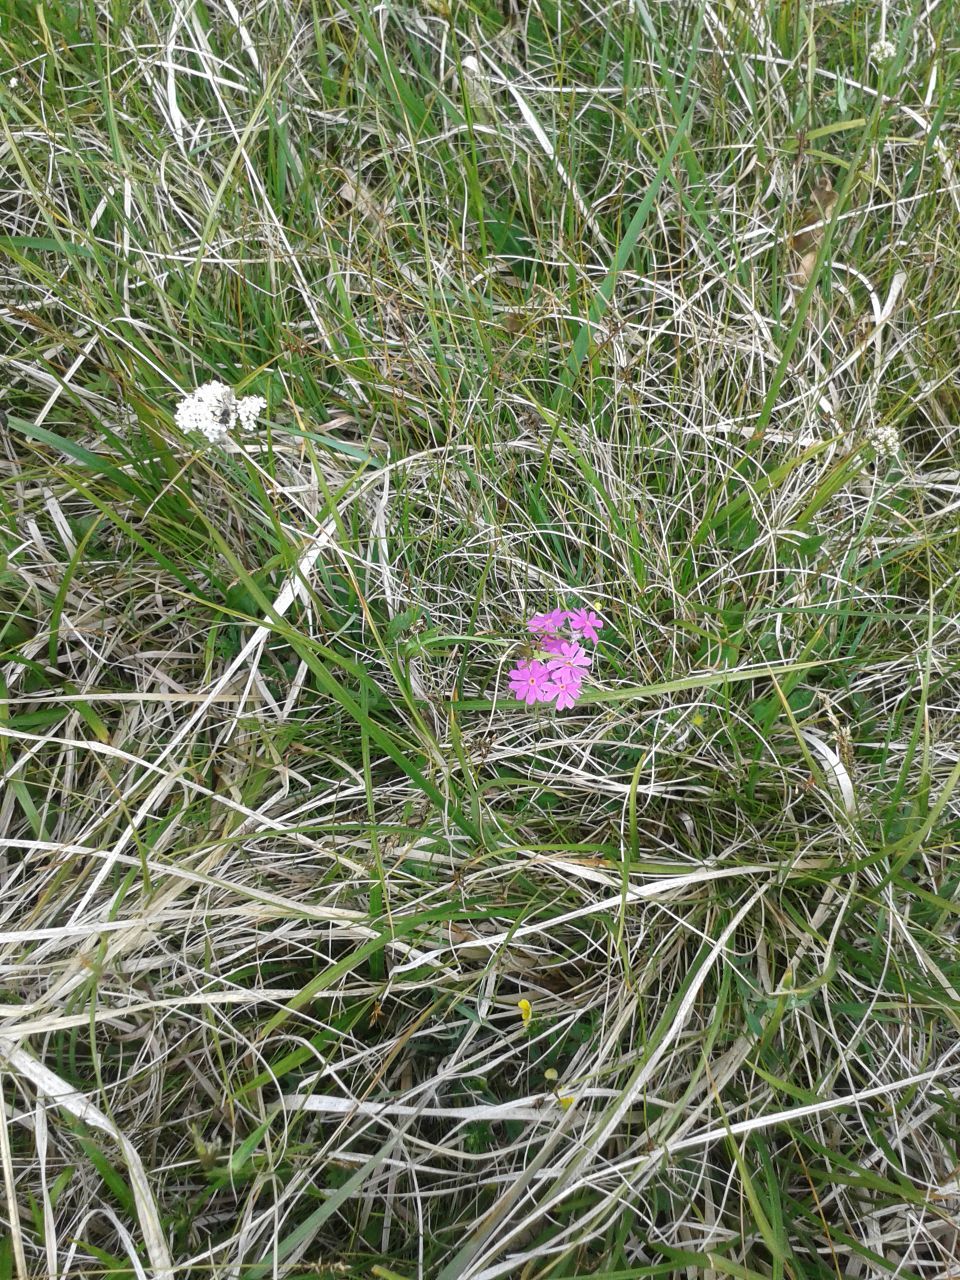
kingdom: Plantae
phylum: Tracheophyta
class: Magnoliopsida
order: Ericales
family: Primulaceae
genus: Primula
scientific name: Primula farinosa
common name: Bird's-eye primrose
